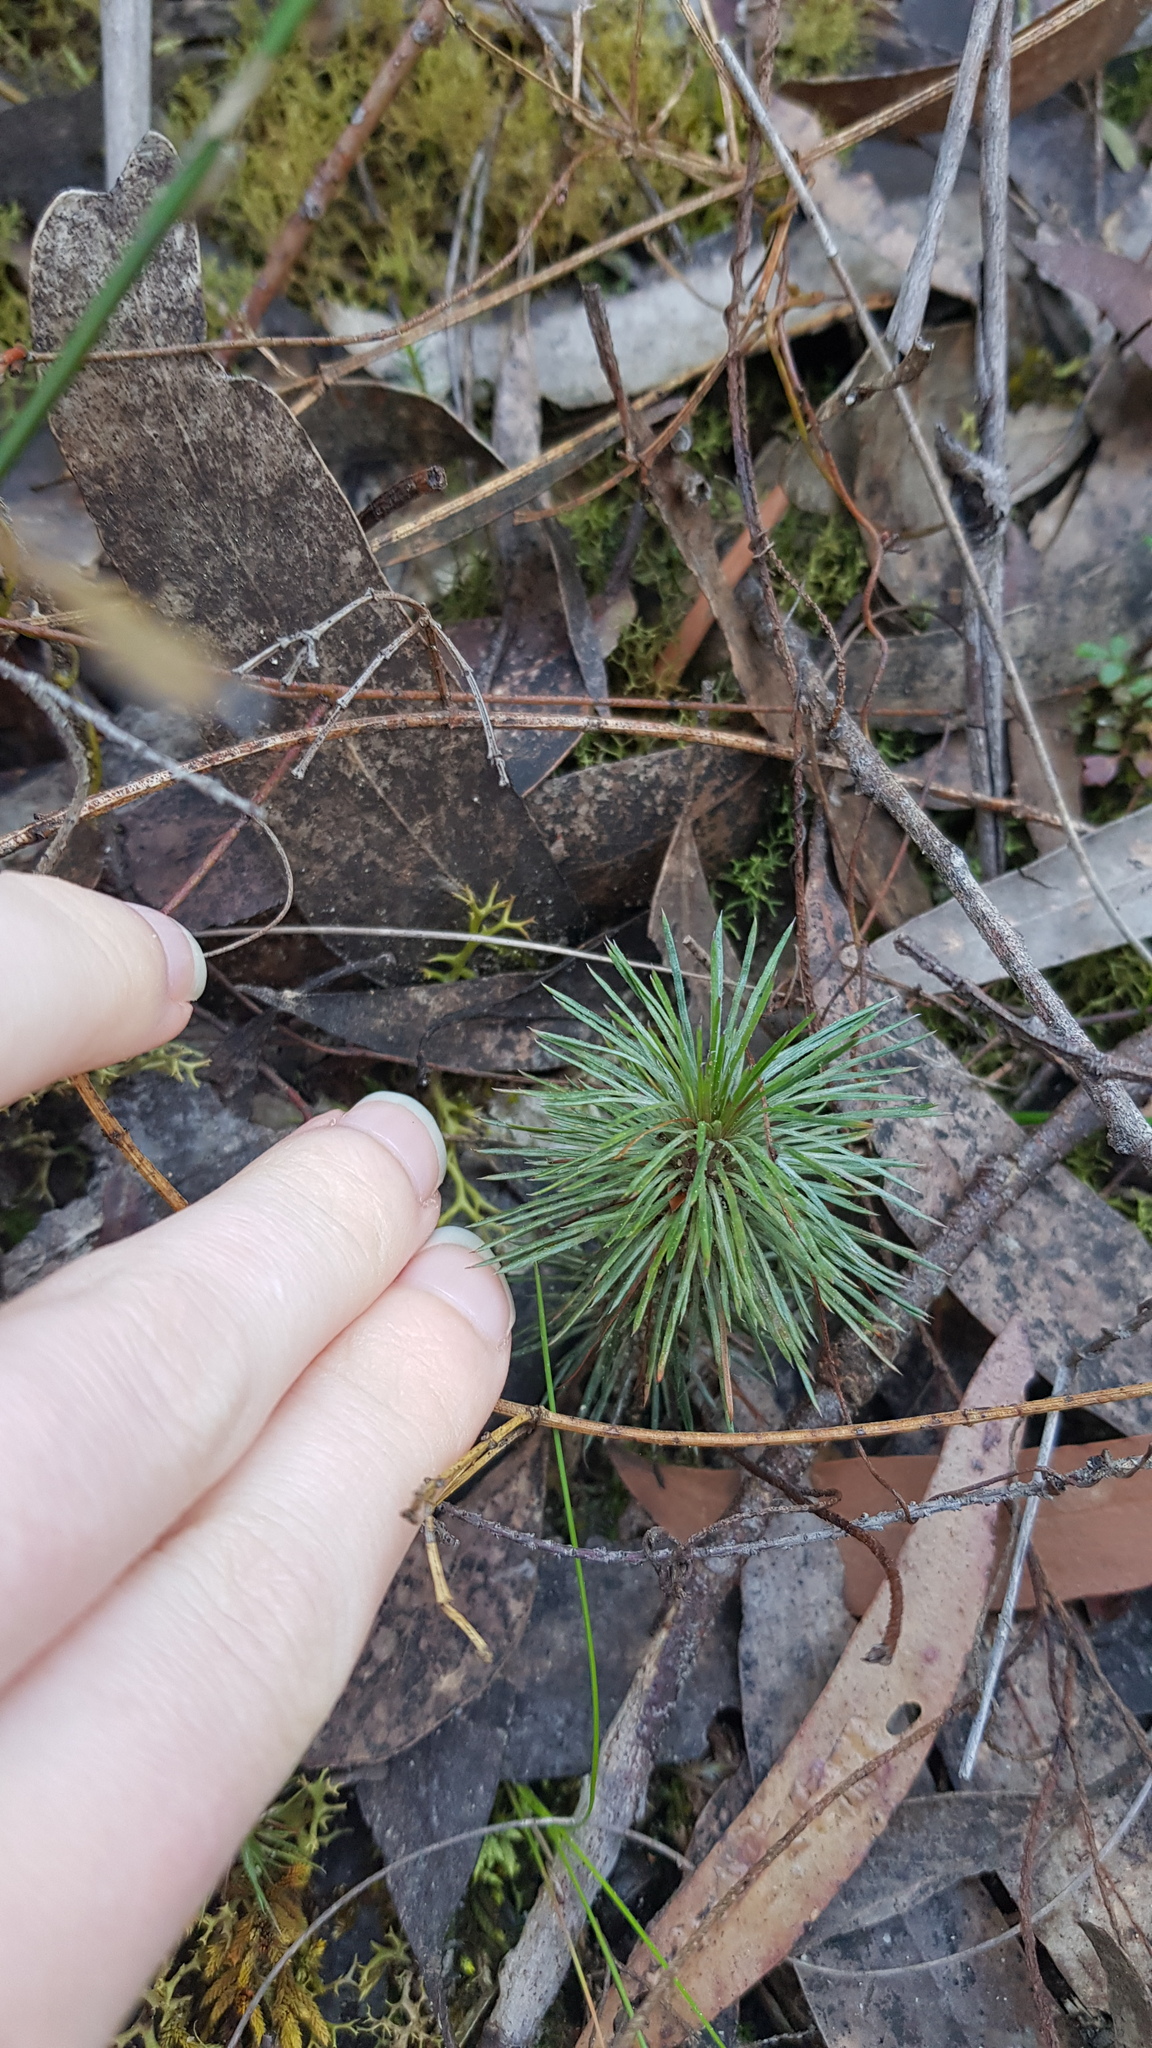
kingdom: Plantae
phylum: Tracheophyta
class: Magnoliopsida
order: Asterales
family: Stylidiaceae
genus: Stylidium
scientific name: Stylidium lineare
